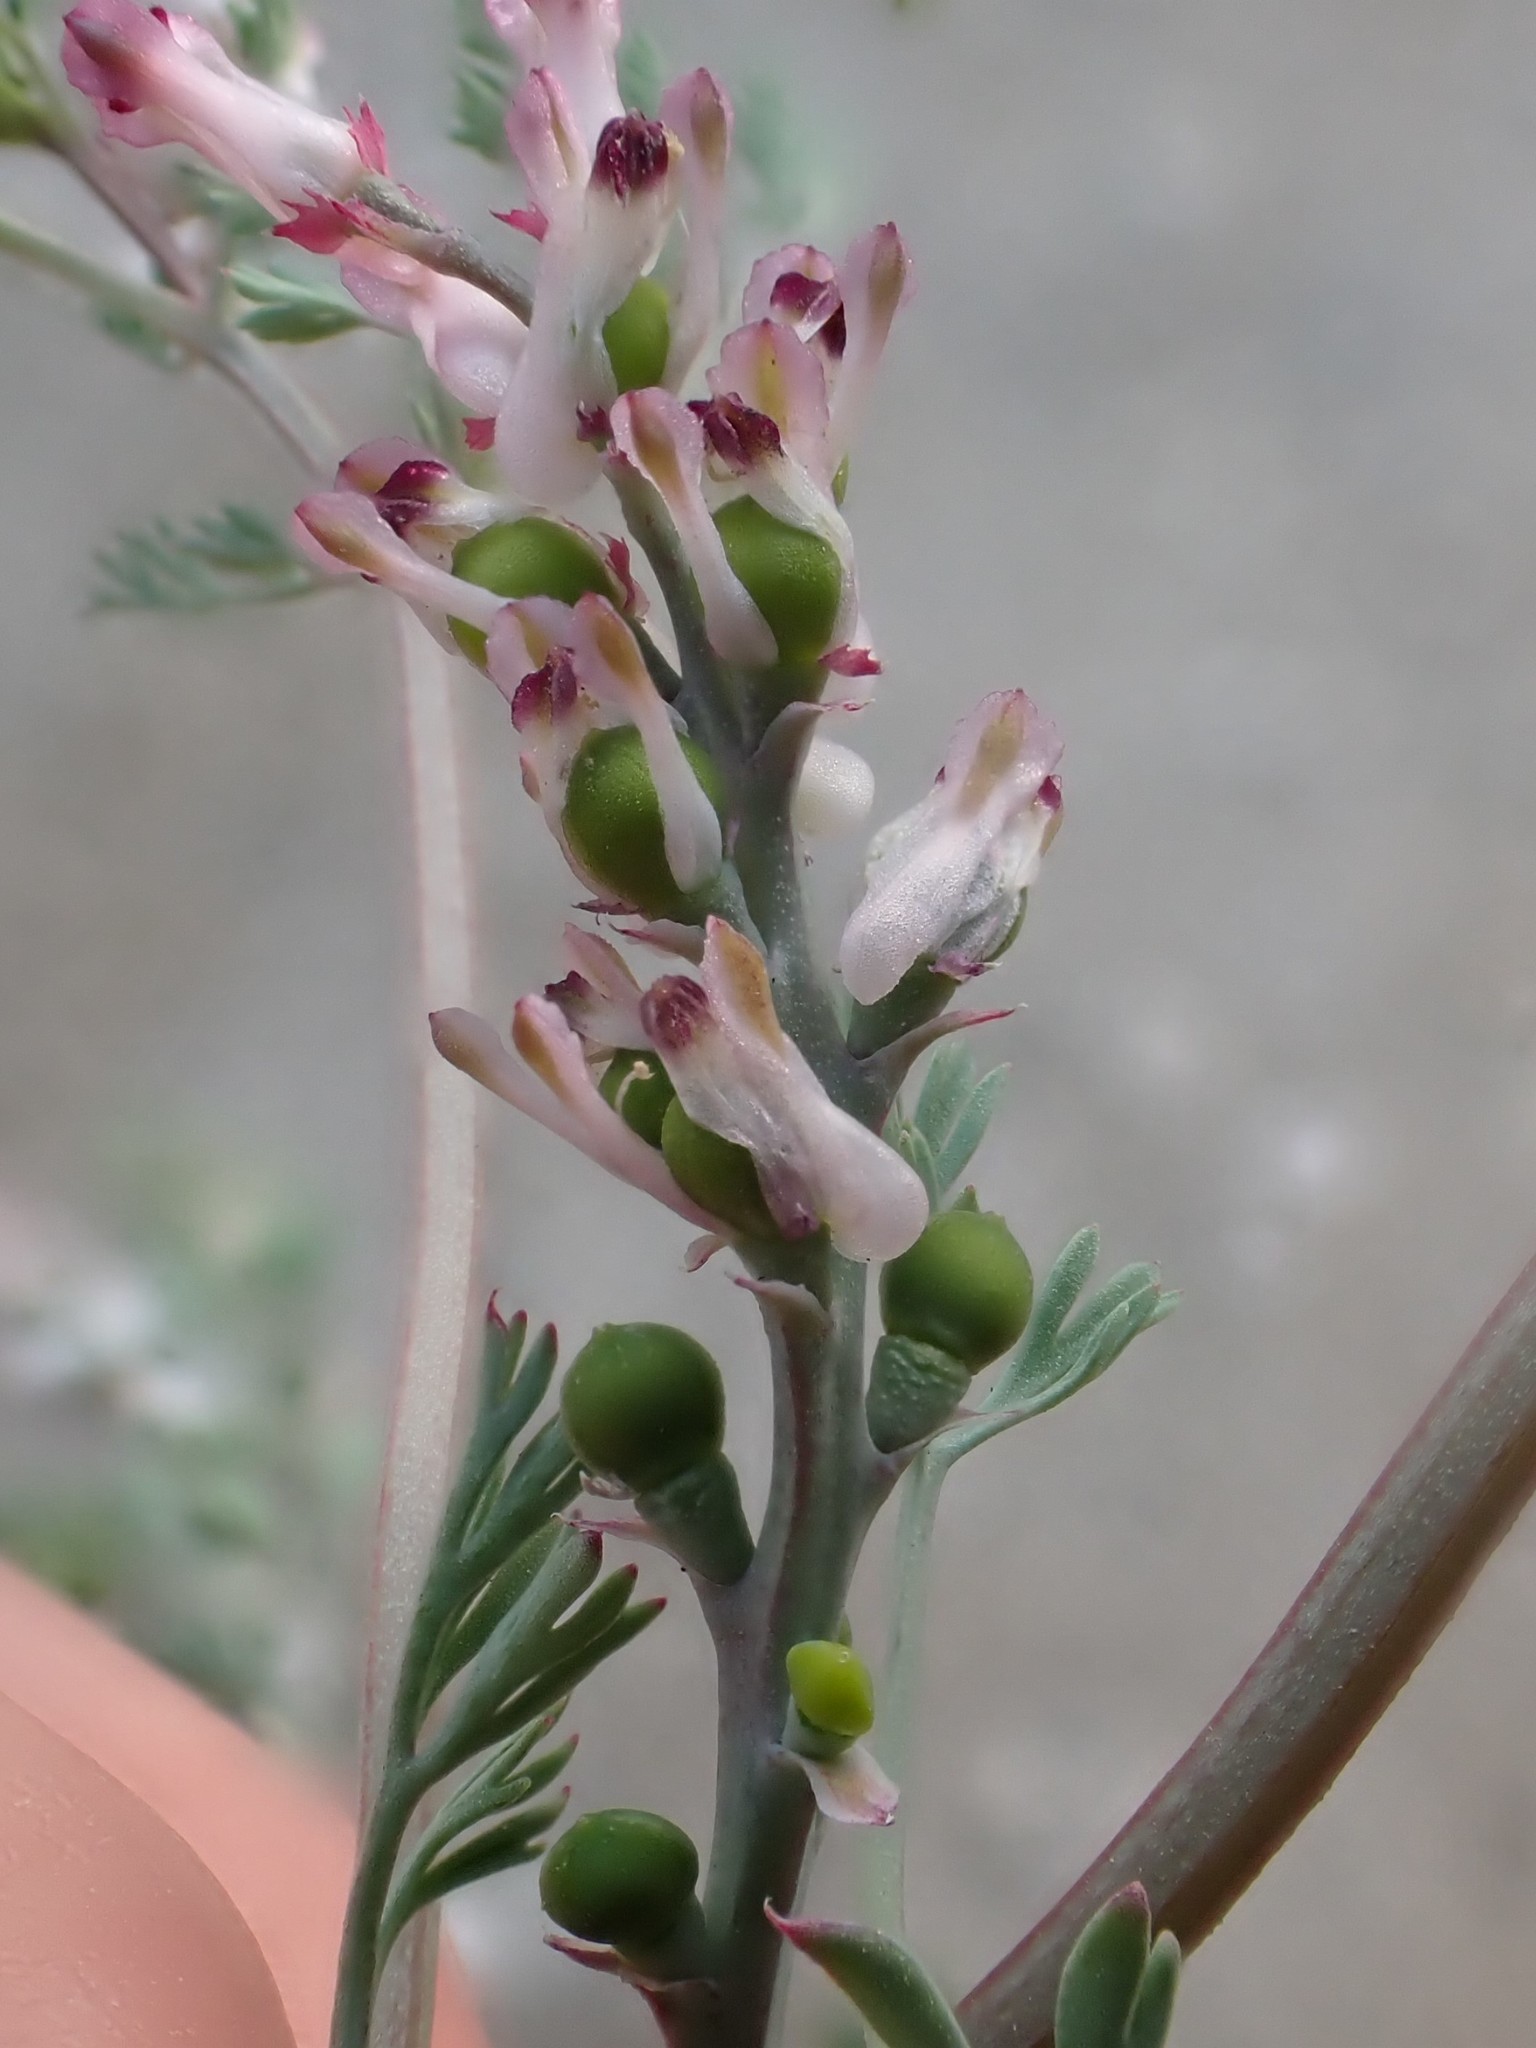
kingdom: Plantae
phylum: Tracheophyta
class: Magnoliopsida
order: Ranunculales
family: Papaveraceae
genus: Fumaria
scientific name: Fumaria parviflora
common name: Fine-leaved fumitory
